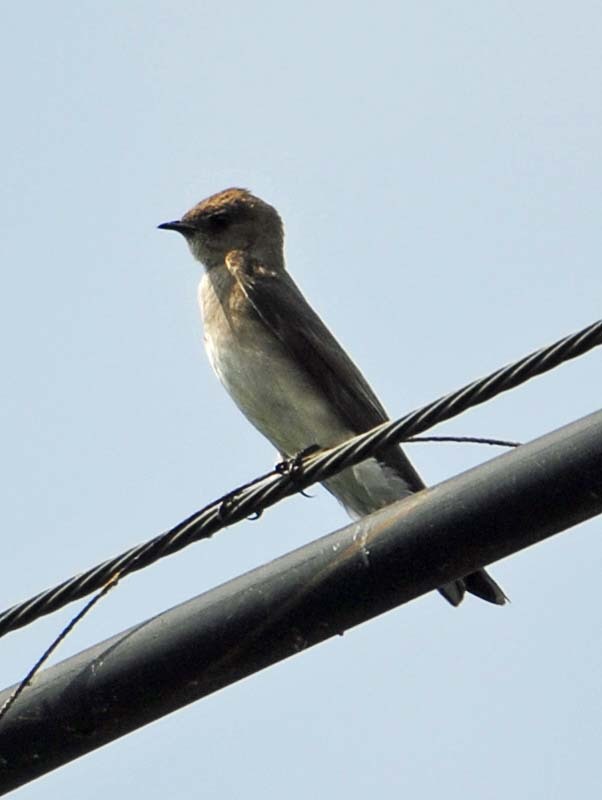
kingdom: Animalia
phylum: Chordata
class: Aves
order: Passeriformes
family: Hirundinidae
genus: Stelgidopteryx
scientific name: Stelgidopteryx serripennis
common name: Northern rough-winged swallow
